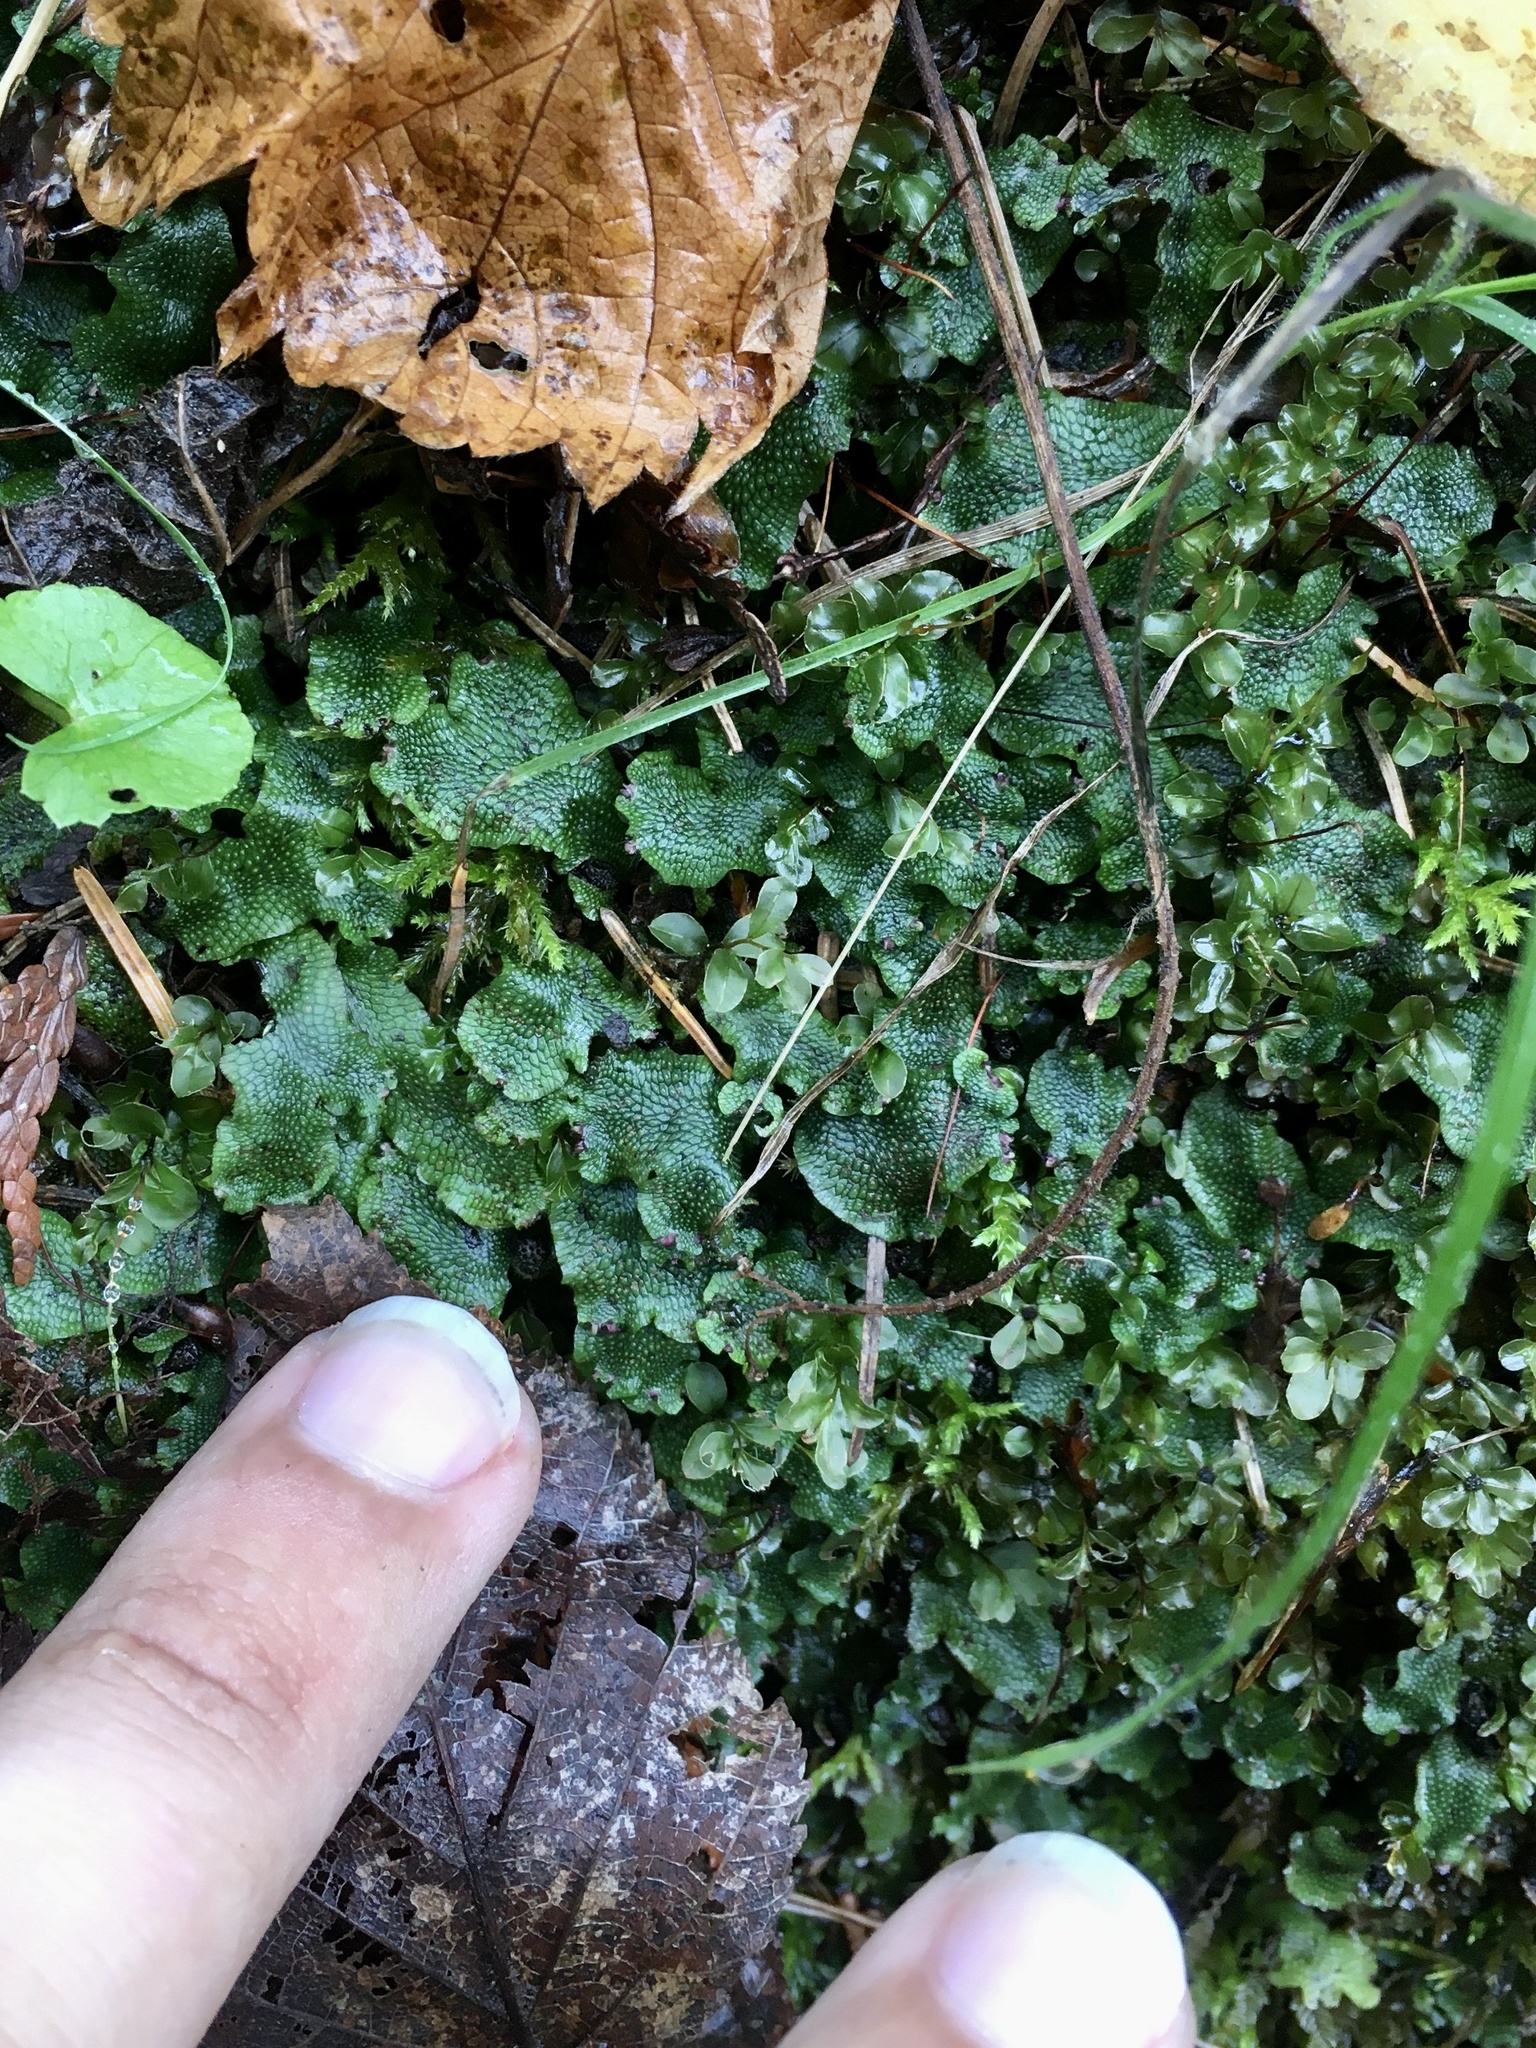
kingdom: Plantae
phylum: Marchantiophyta
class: Marchantiopsida
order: Marchantiales
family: Conocephalaceae
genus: Conocephalum
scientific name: Conocephalum salebrosum
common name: Cat-tongue liverwort
